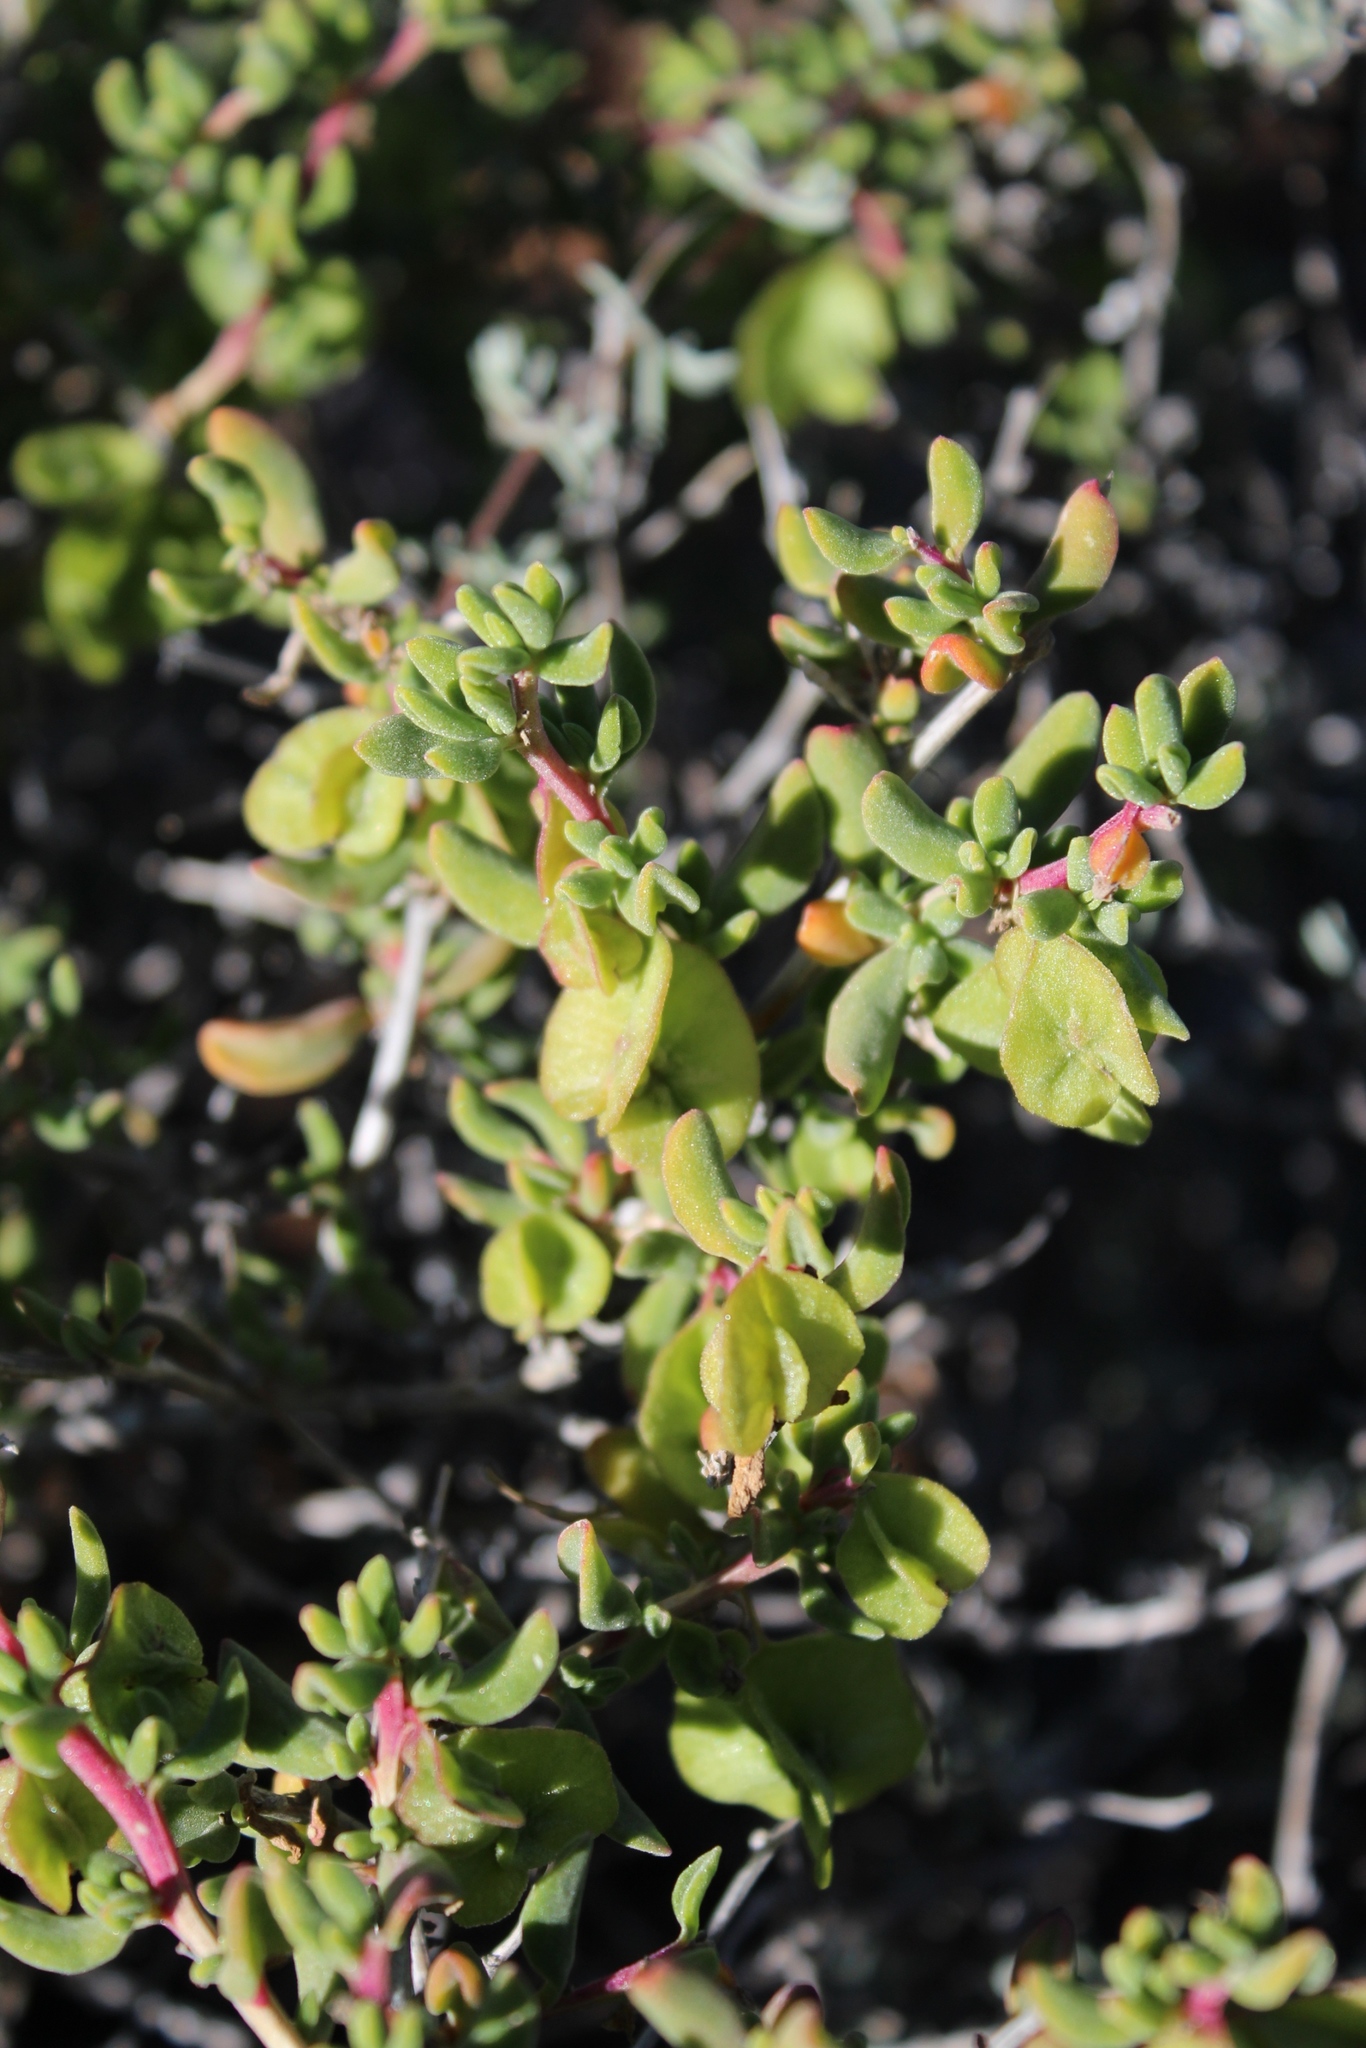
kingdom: Plantae
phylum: Tracheophyta
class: Magnoliopsida
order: Caryophyllales
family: Aizoaceae
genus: Tetragonia
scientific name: Tetragonia sarcophylla
